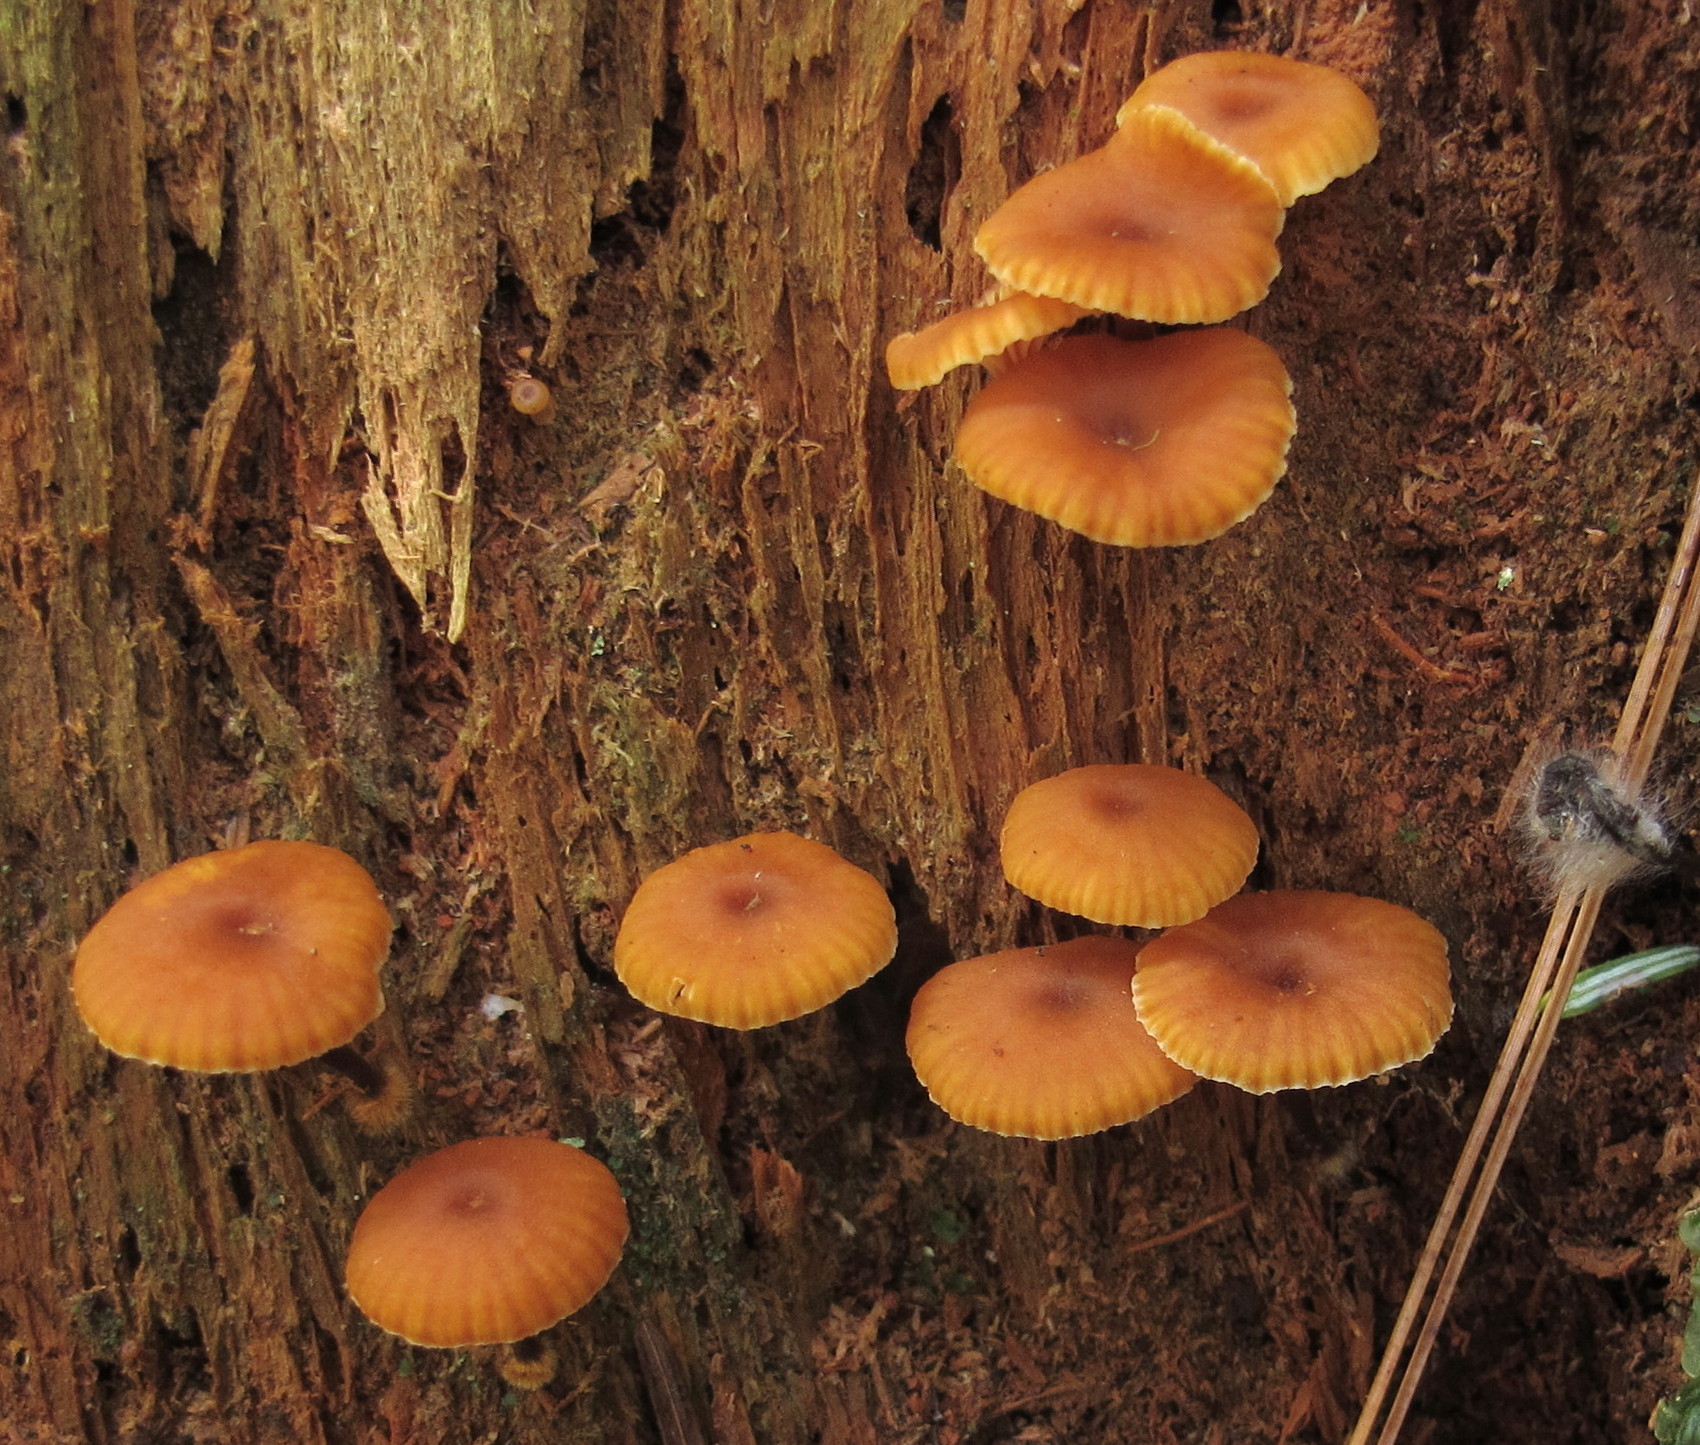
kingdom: Fungi
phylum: Basidiomycota
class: Agaricomycetes
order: Agaricales
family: Mycenaceae
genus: Xeromphalina
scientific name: Xeromphalina campanella
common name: Pinewood gingertail
